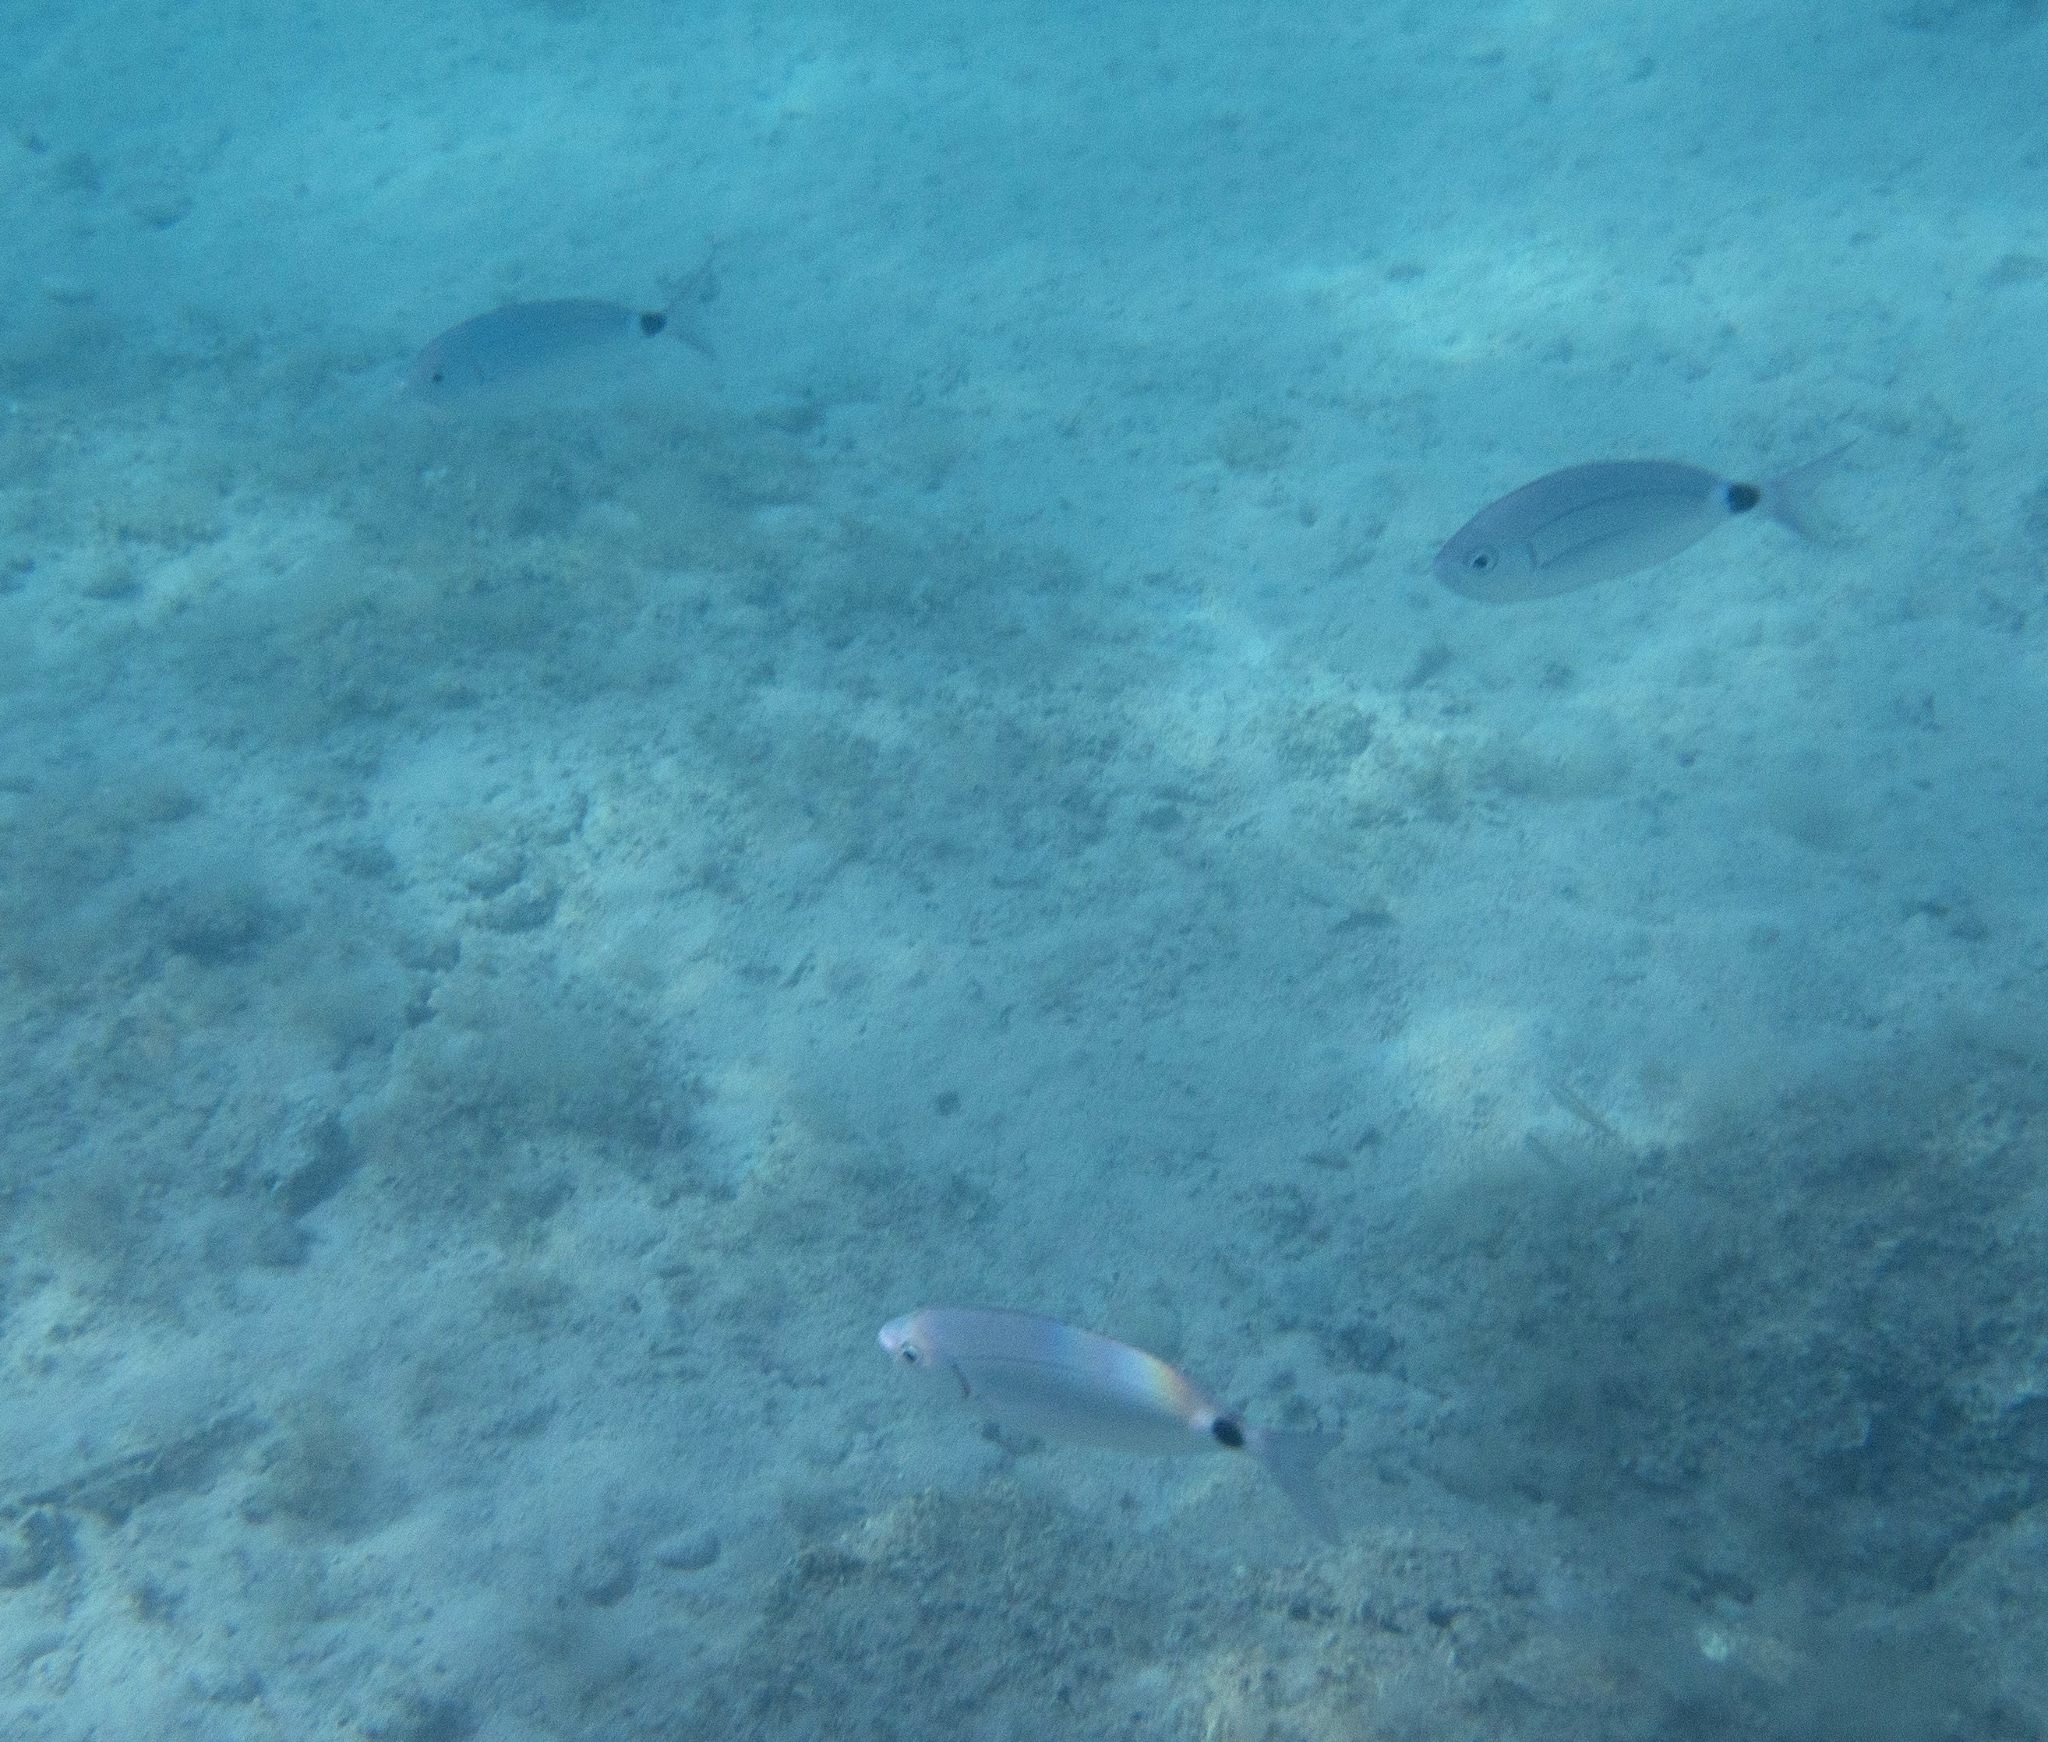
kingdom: Animalia
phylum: Chordata
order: Perciformes
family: Sparidae
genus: Oblada
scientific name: Oblada melanura
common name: Saddled seabream
